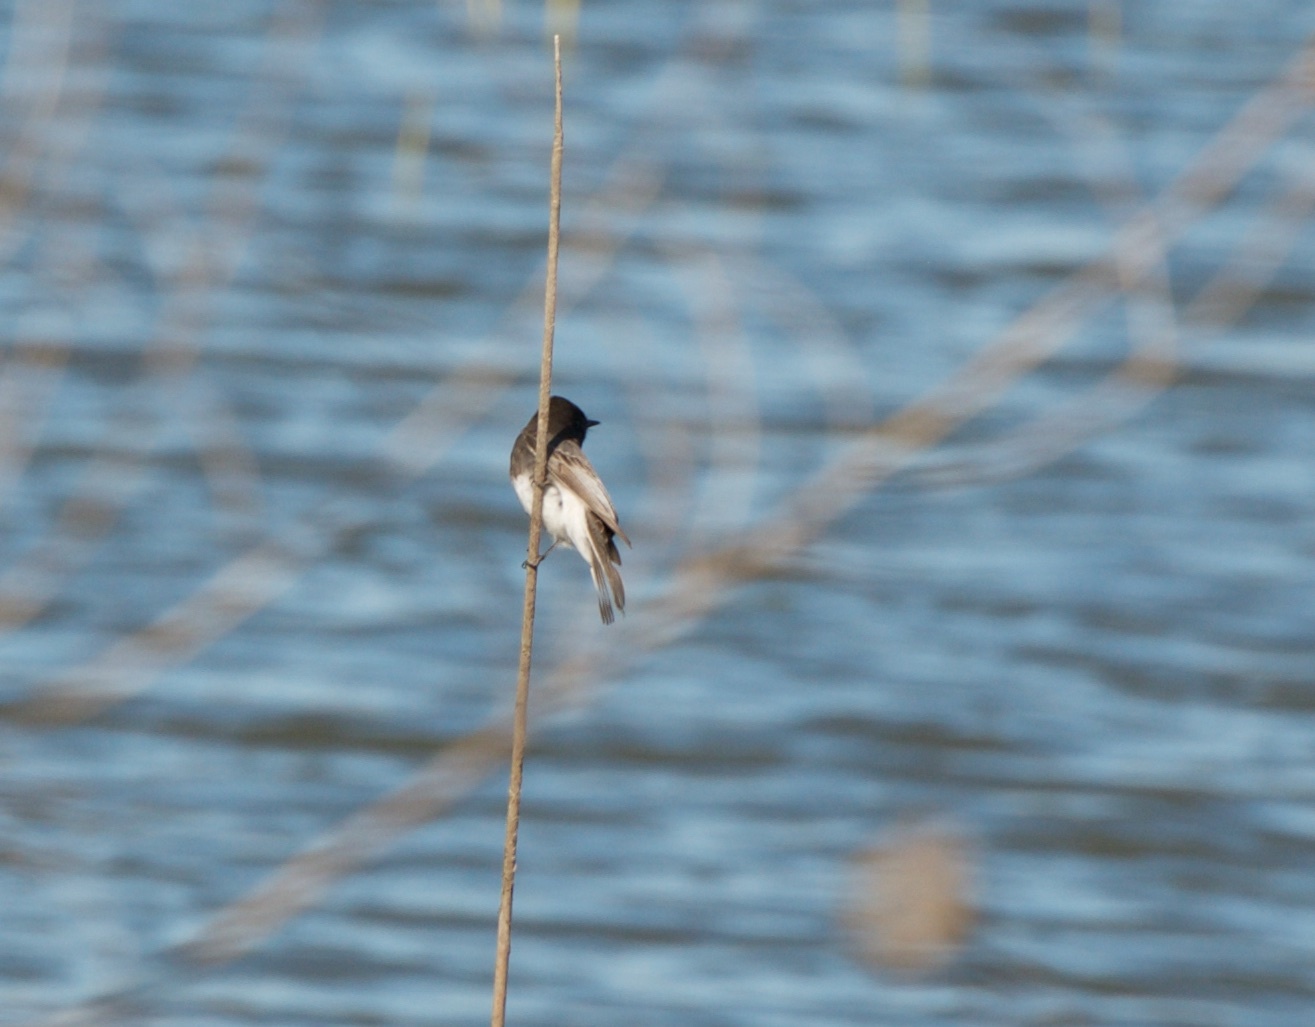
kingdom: Animalia
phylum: Chordata
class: Aves
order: Passeriformes
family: Tyrannidae
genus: Sayornis
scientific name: Sayornis nigricans
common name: Black phoebe
